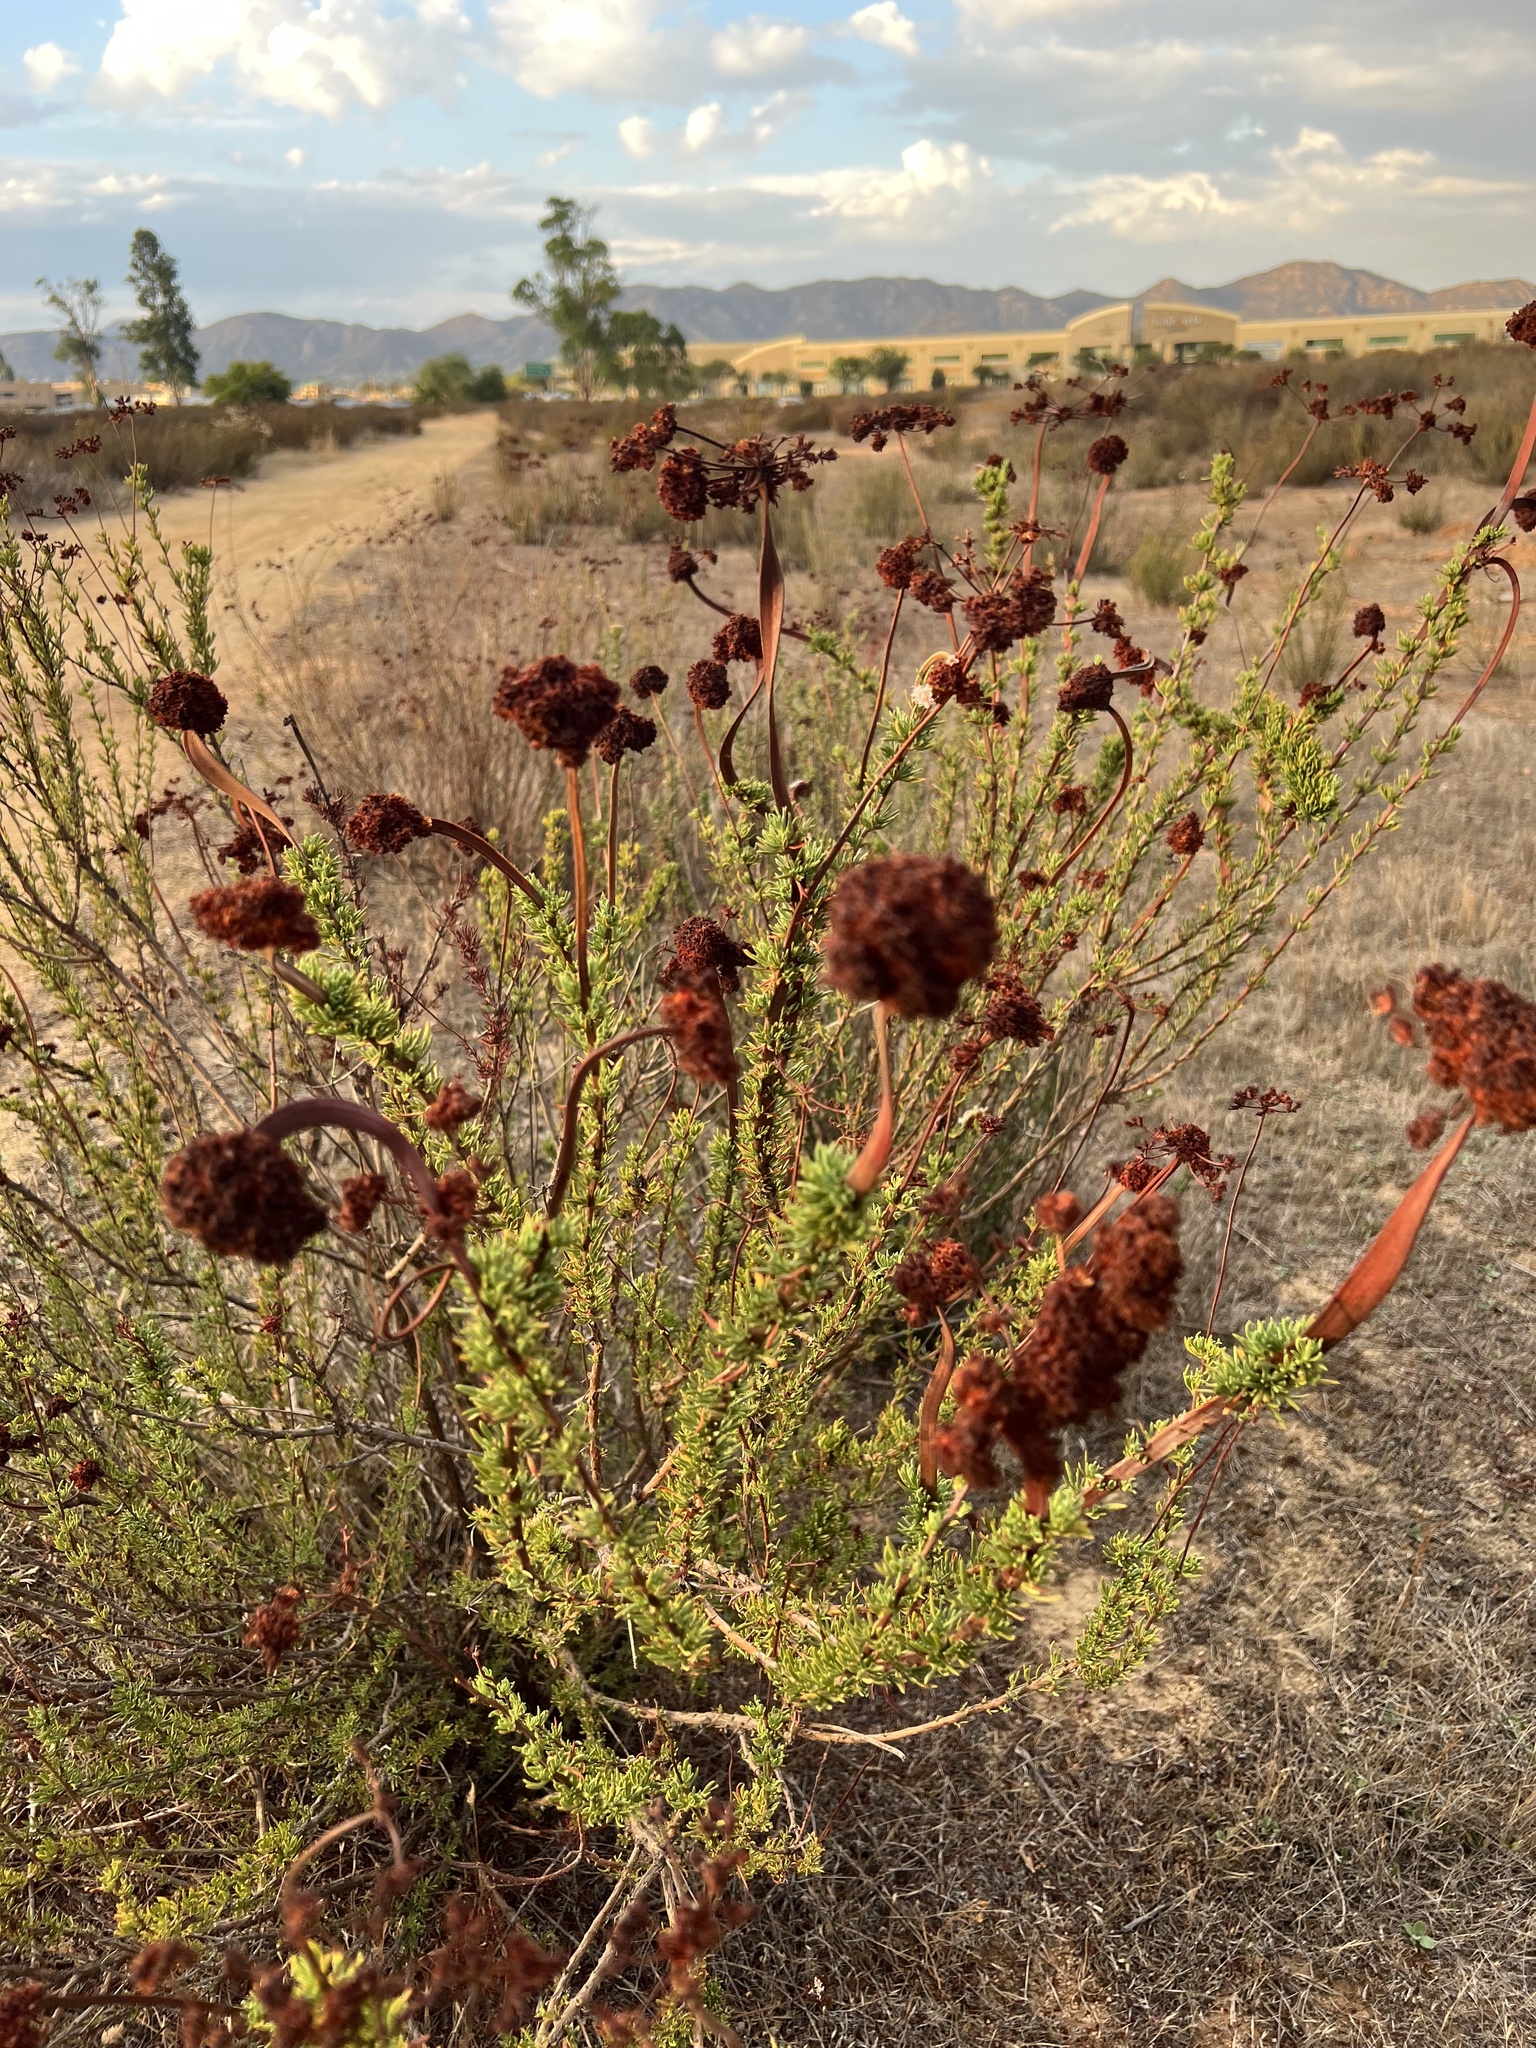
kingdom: Plantae
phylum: Tracheophyta
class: Magnoliopsida
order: Caryophyllales
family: Polygonaceae
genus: Eriogonum
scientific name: Eriogonum fasciculatum
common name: California wild buckwheat
